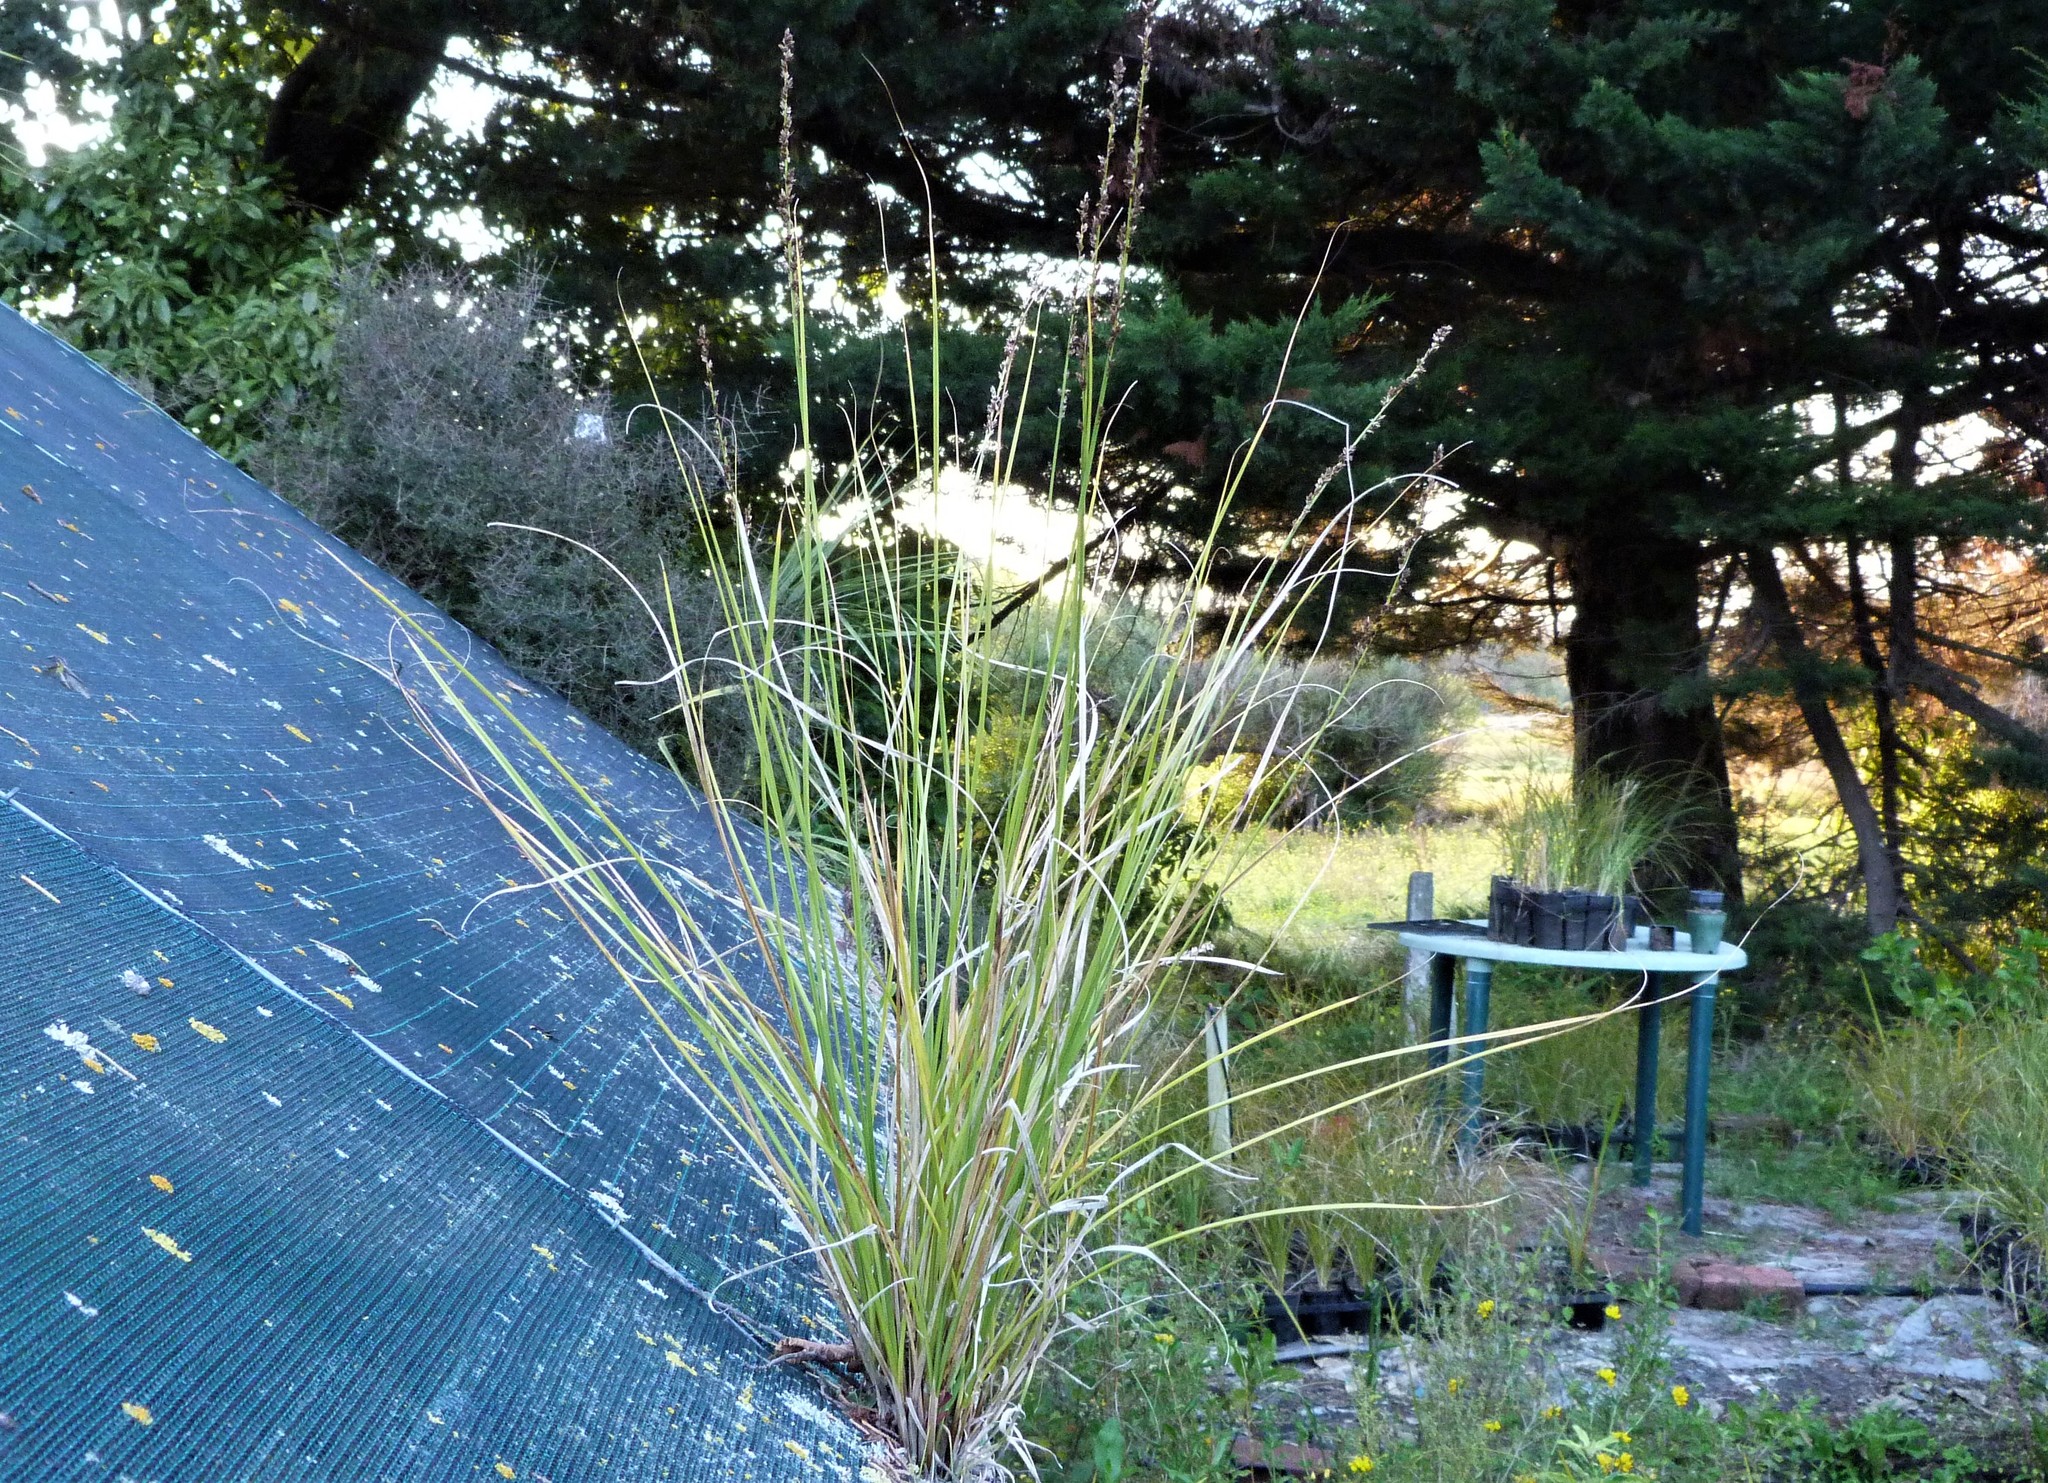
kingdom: Plantae
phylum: Tracheophyta
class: Liliopsida
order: Poales
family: Cyperaceae
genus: Carex
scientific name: Carex virgata
